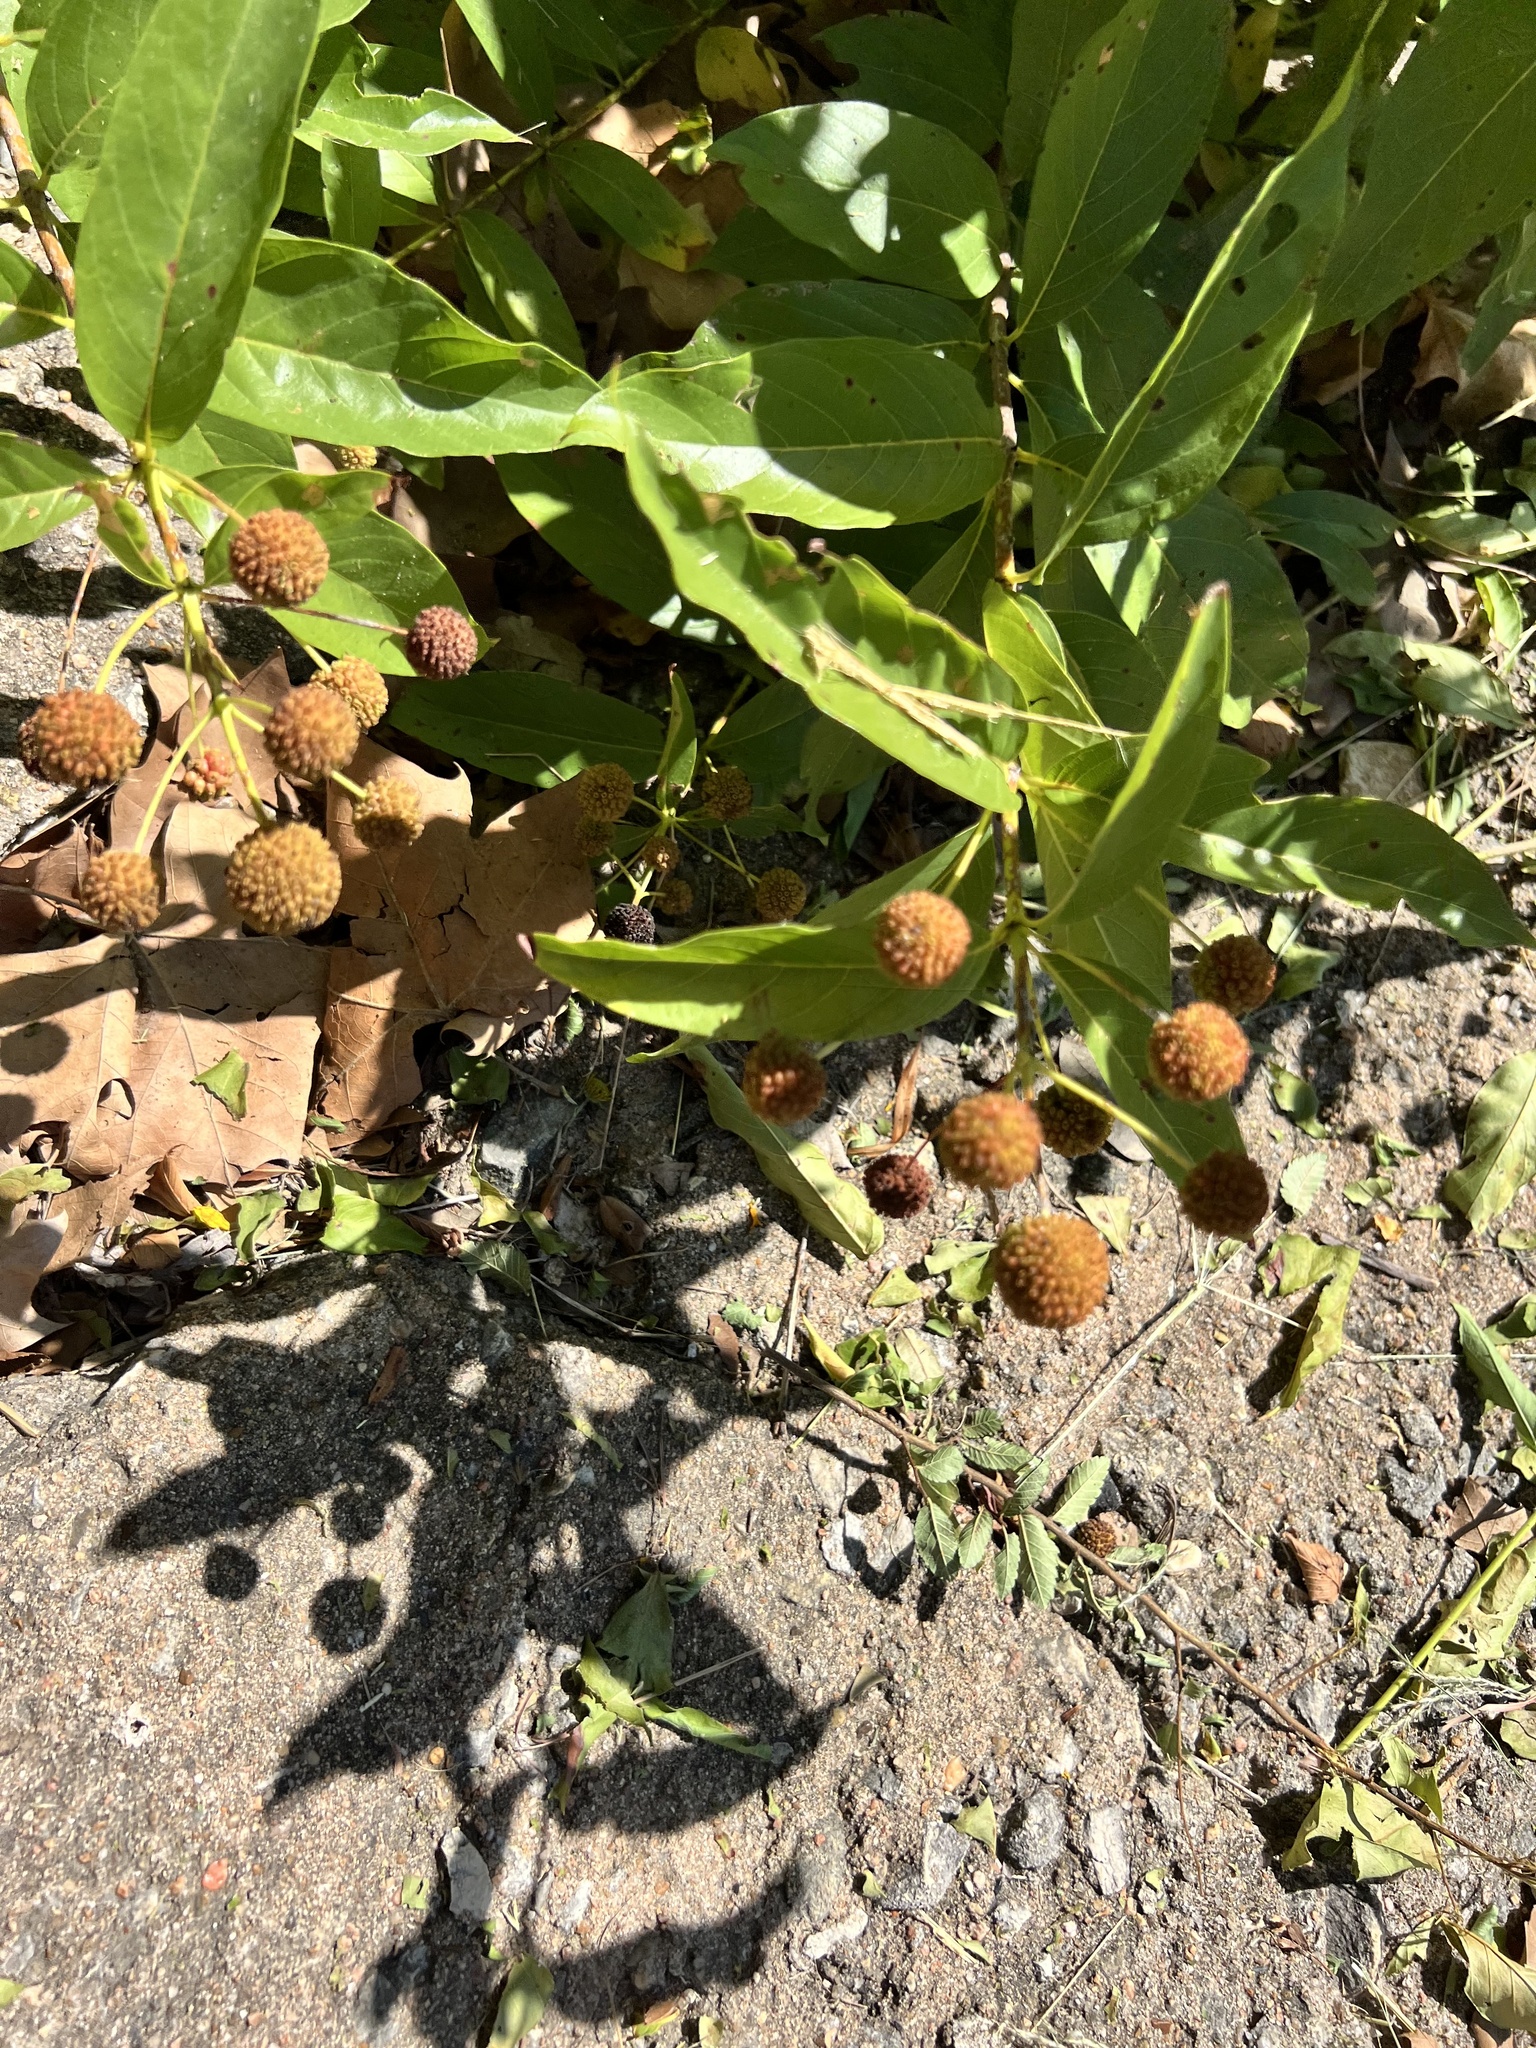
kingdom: Plantae
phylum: Tracheophyta
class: Magnoliopsida
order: Gentianales
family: Rubiaceae
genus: Cephalanthus
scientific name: Cephalanthus occidentalis
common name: Button-willow
